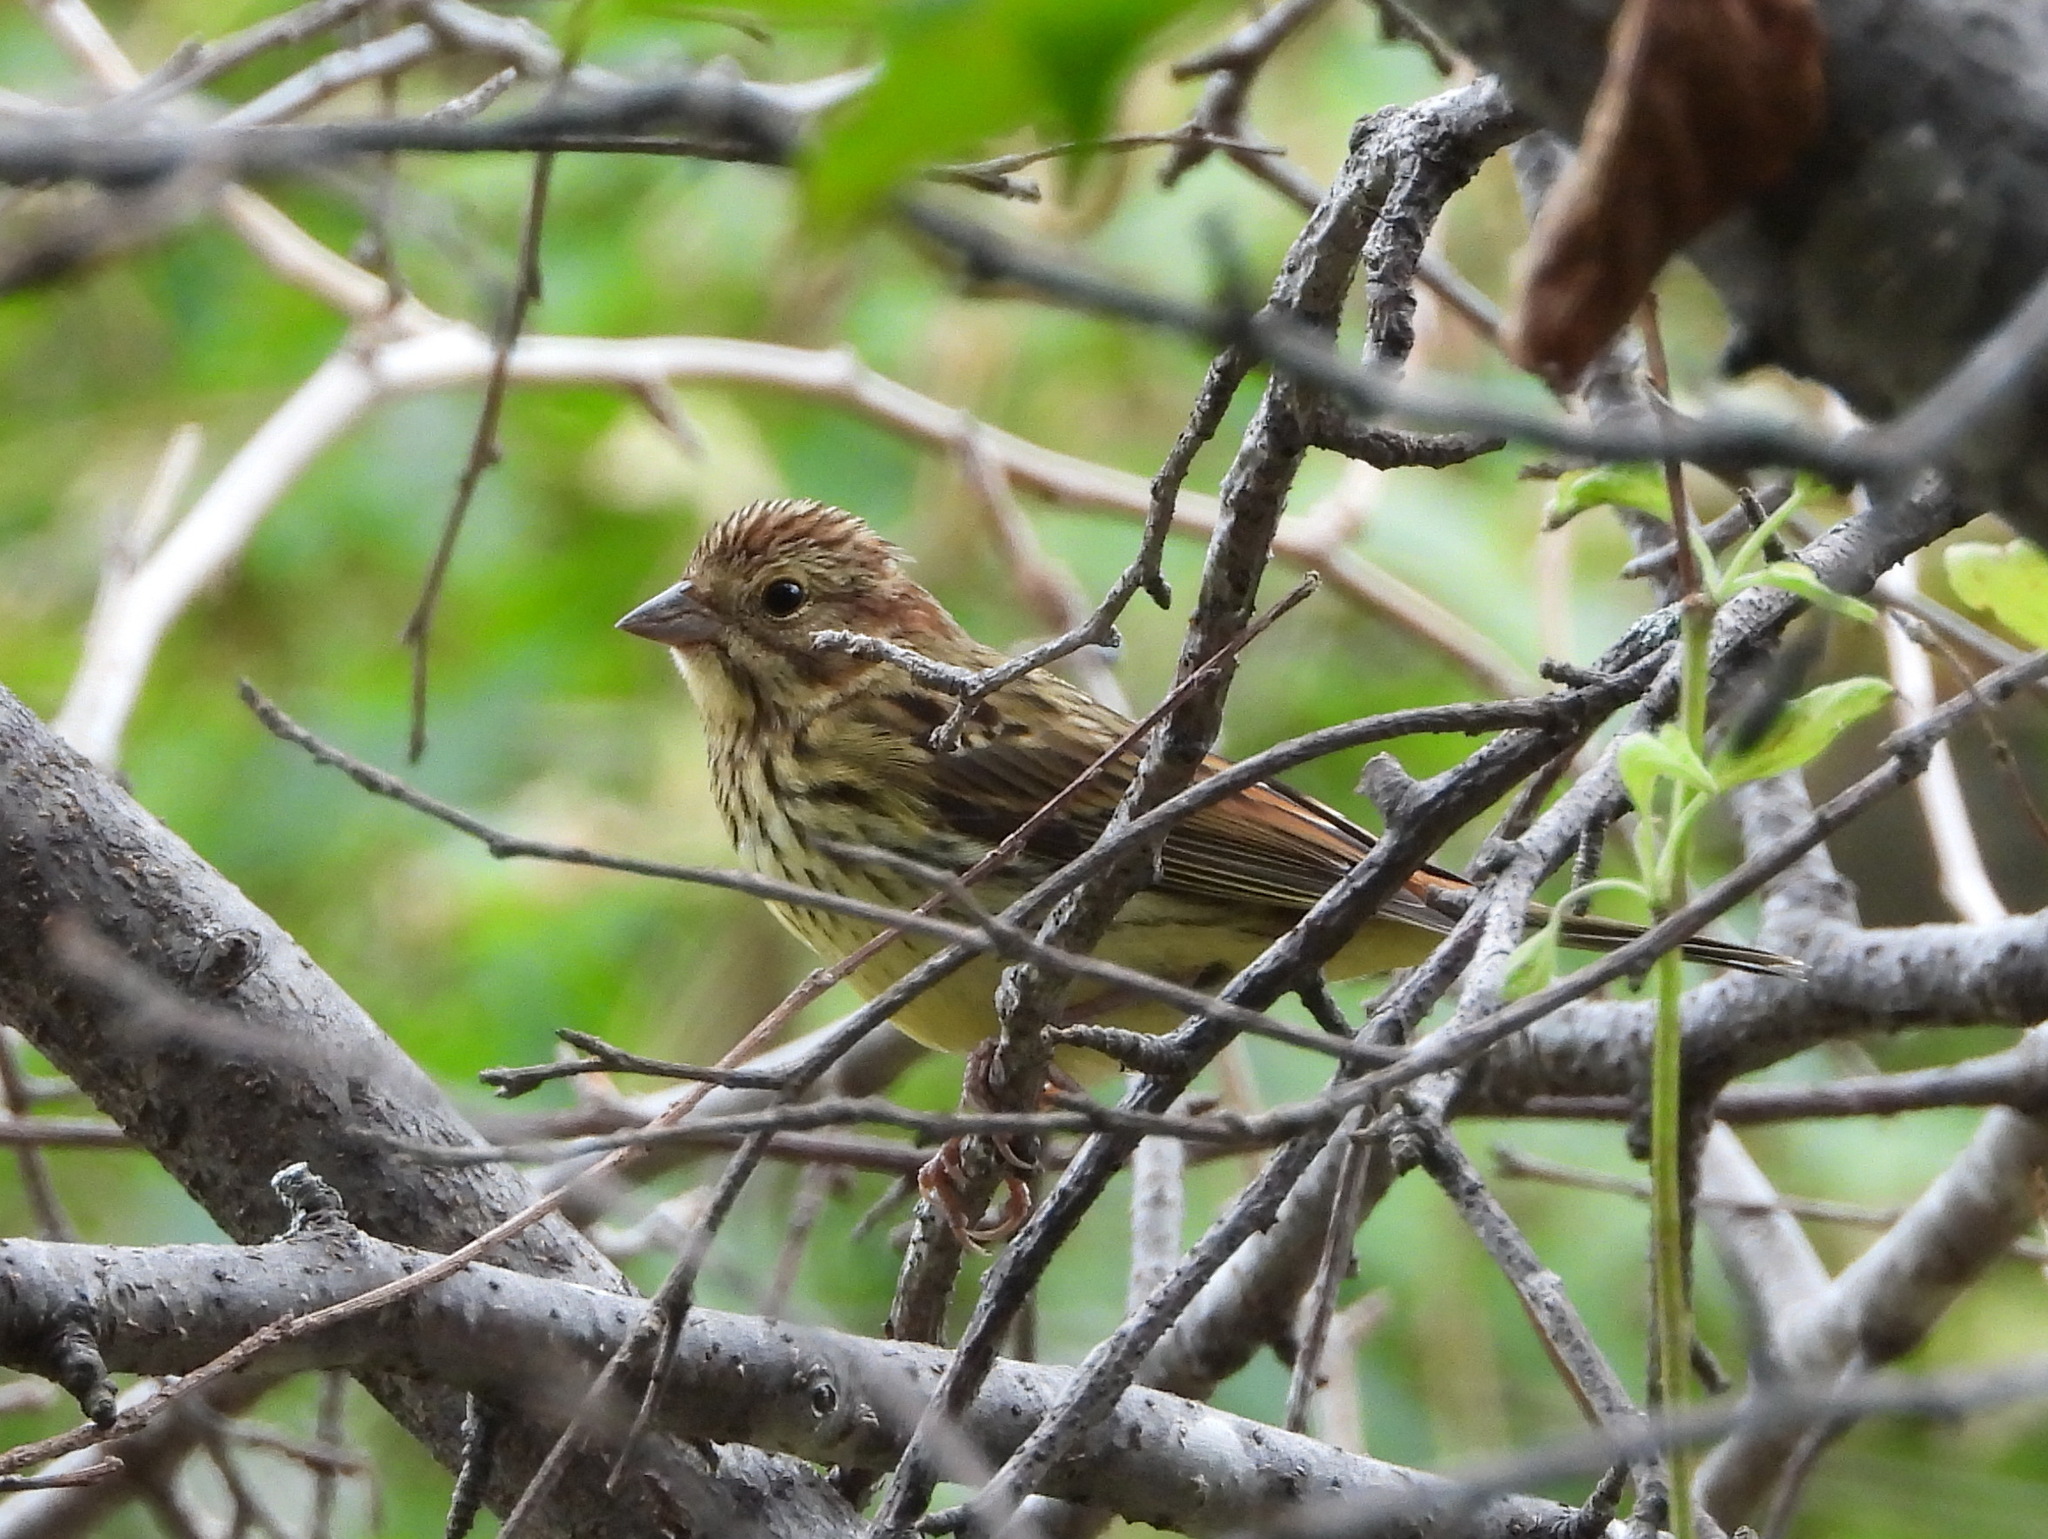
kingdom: Animalia
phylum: Chordata
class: Aves
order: Passeriformes
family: Emberizidae
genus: Emberiza
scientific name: Emberiza rutila
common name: Chestnut bunting
